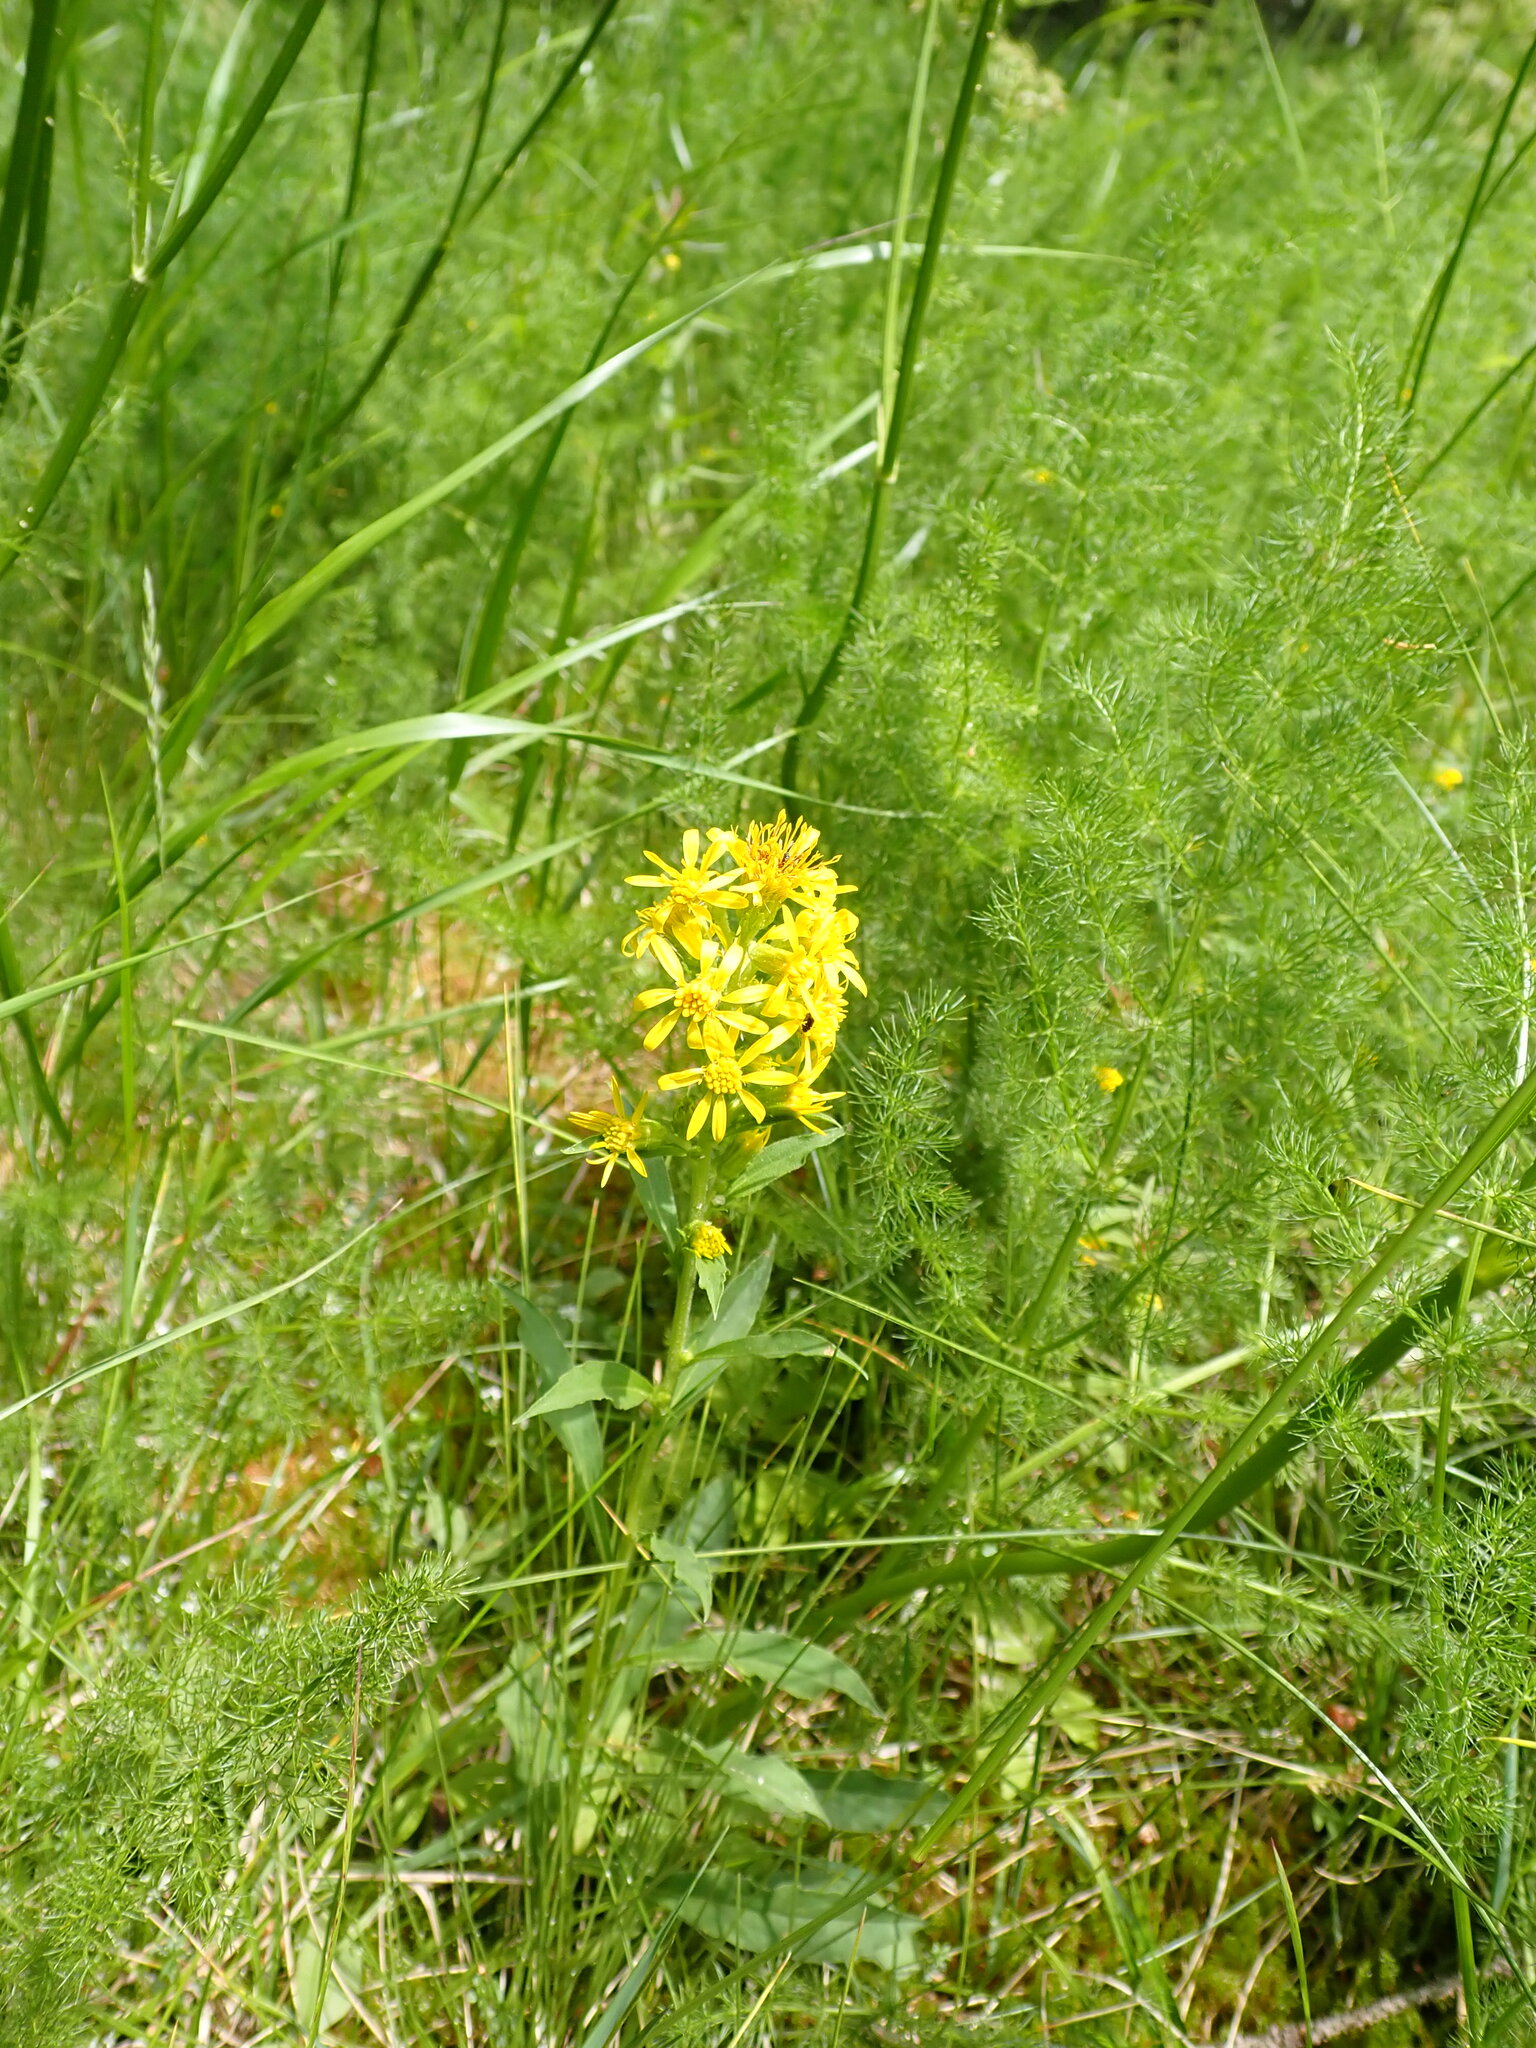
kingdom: Plantae
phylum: Tracheophyta
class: Magnoliopsida
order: Asterales
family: Asteraceae
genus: Solidago
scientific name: Solidago virgaurea
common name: Goldenrod
